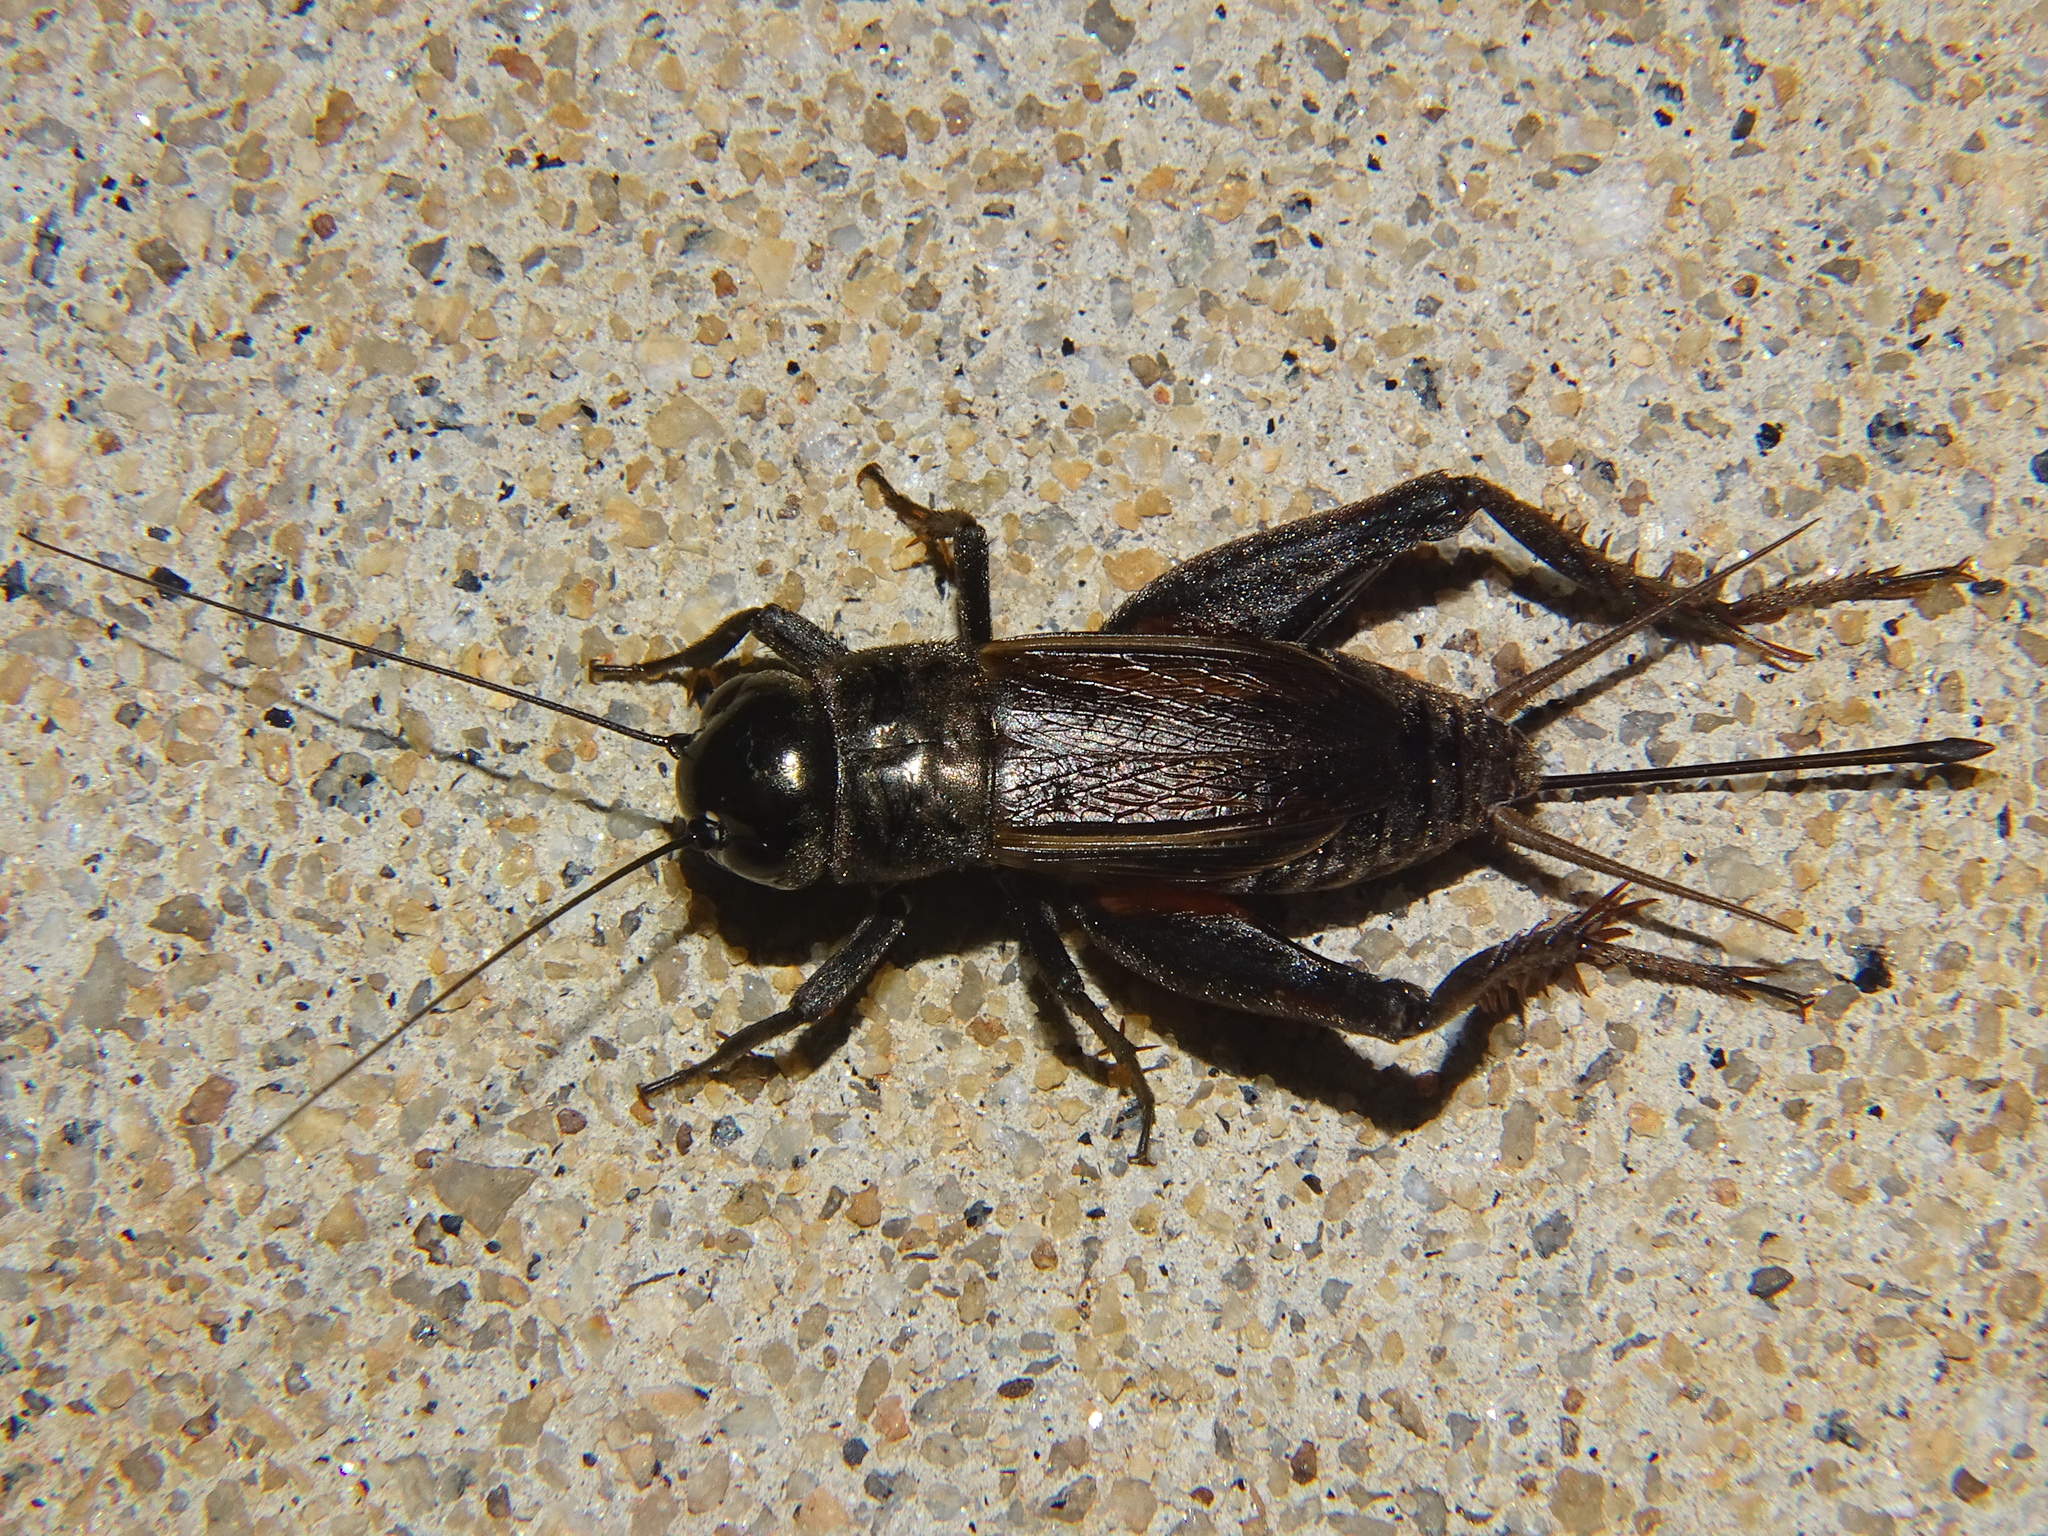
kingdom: Animalia
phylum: Arthropoda
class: Insecta
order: Orthoptera
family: Gryllidae
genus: Gryllus
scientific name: Gryllus texensis
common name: Texas field cricket
